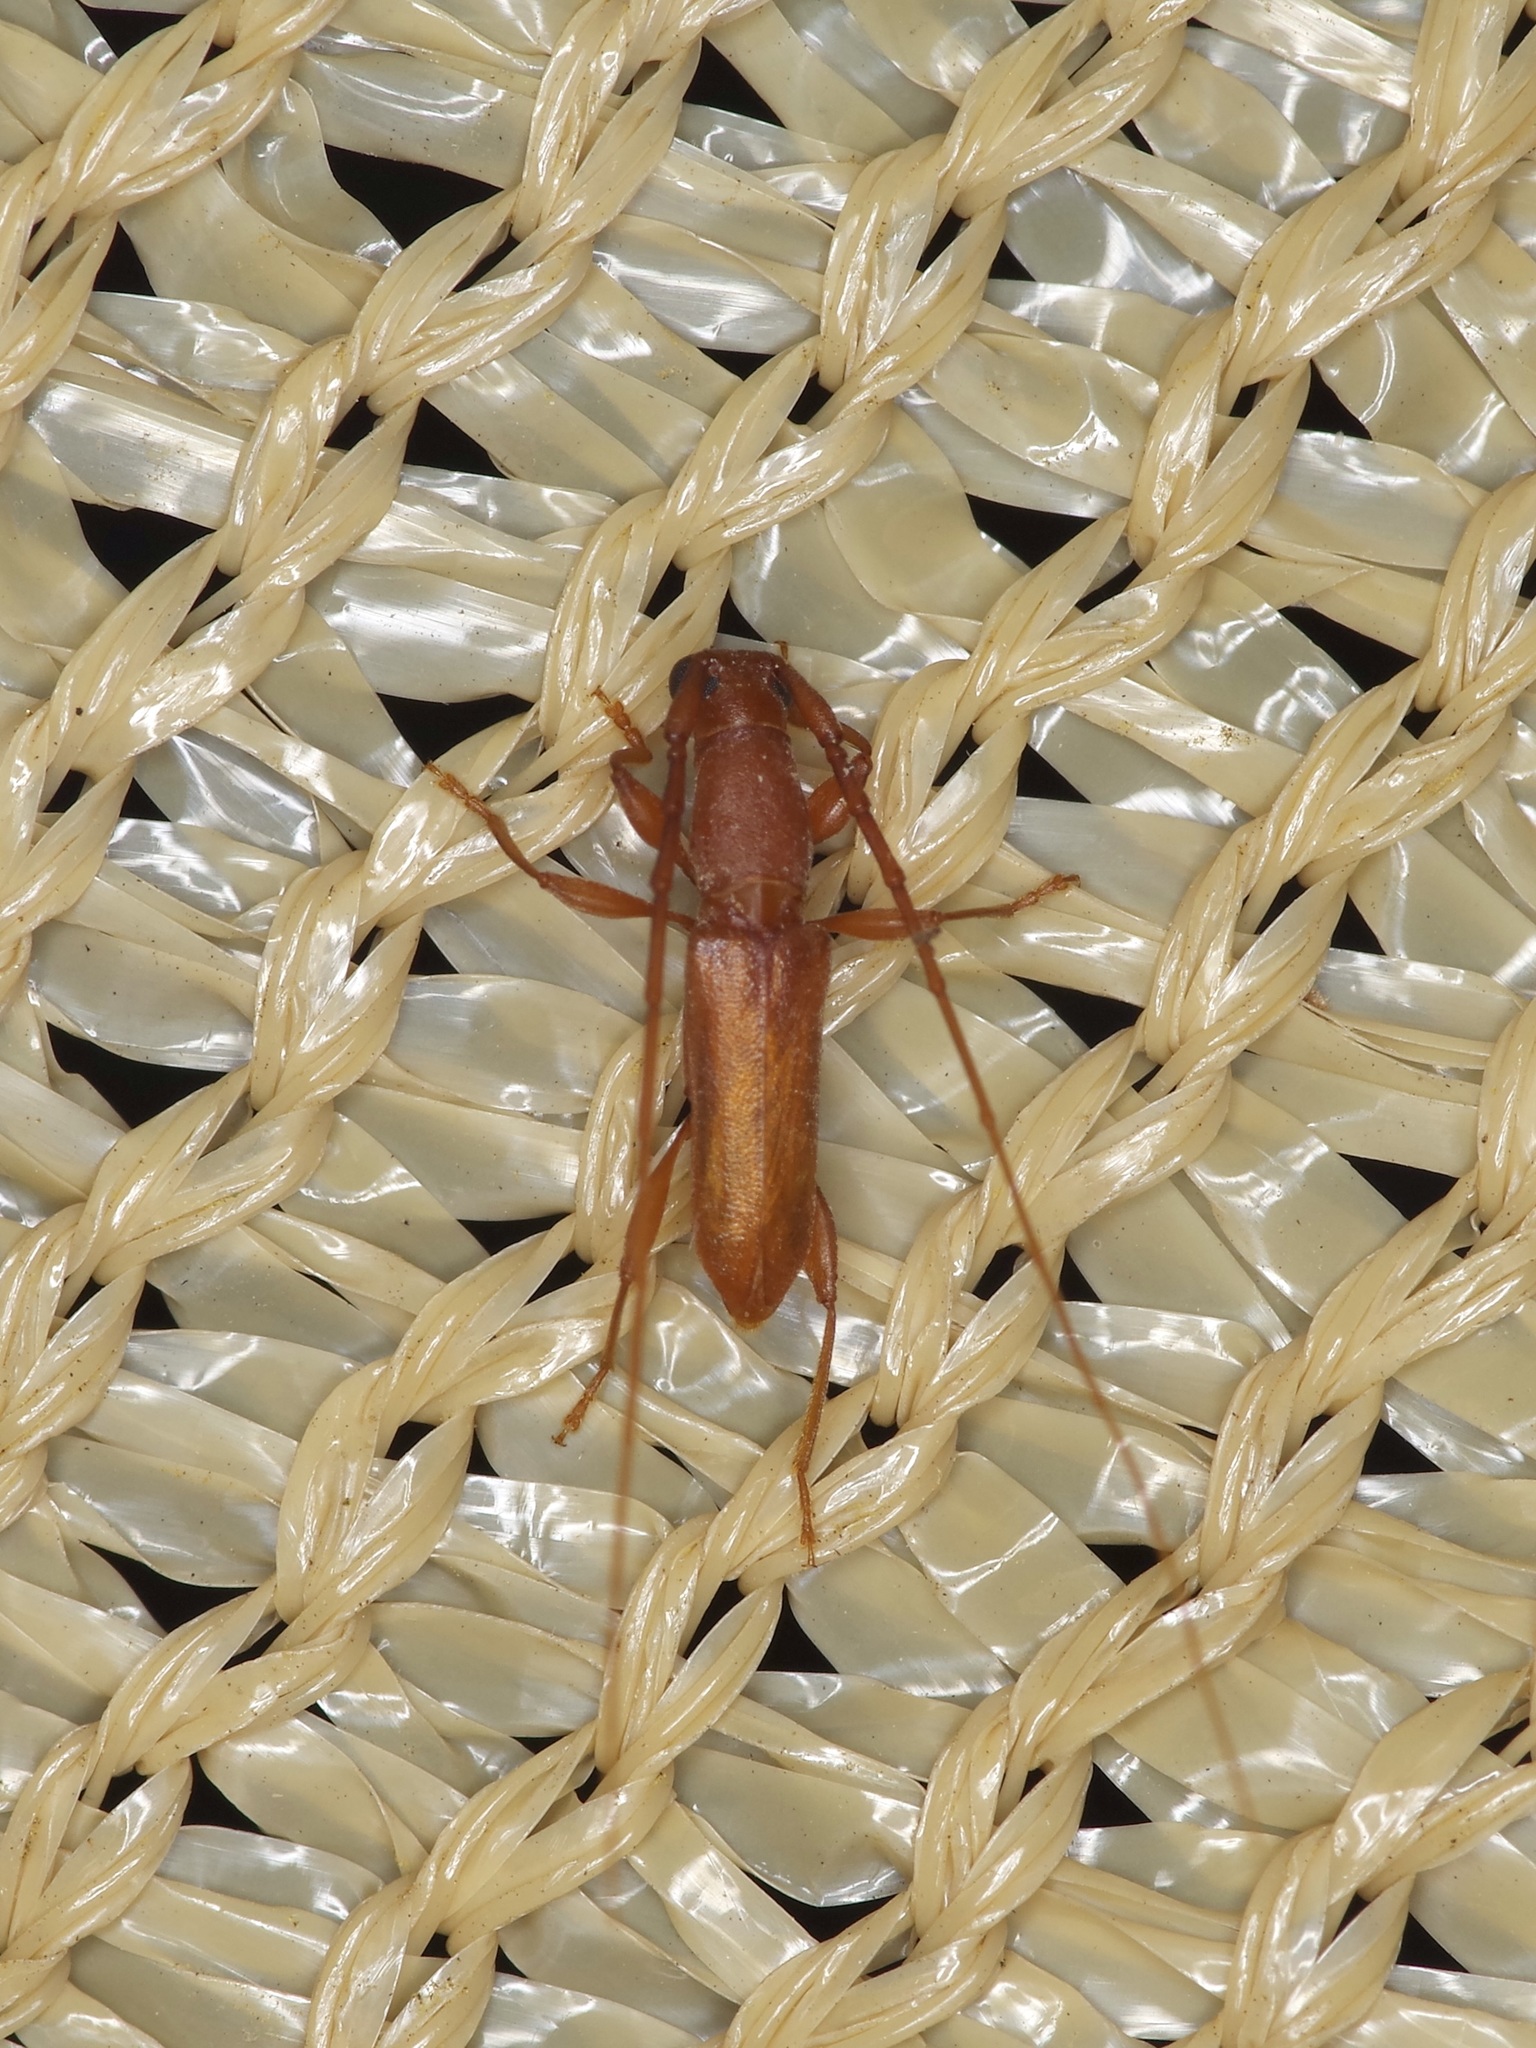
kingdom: Animalia
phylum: Arthropoda
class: Insecta
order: Coleoptera
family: Cerambycidae
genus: Hypexilis
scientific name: Hypexilis pallida
